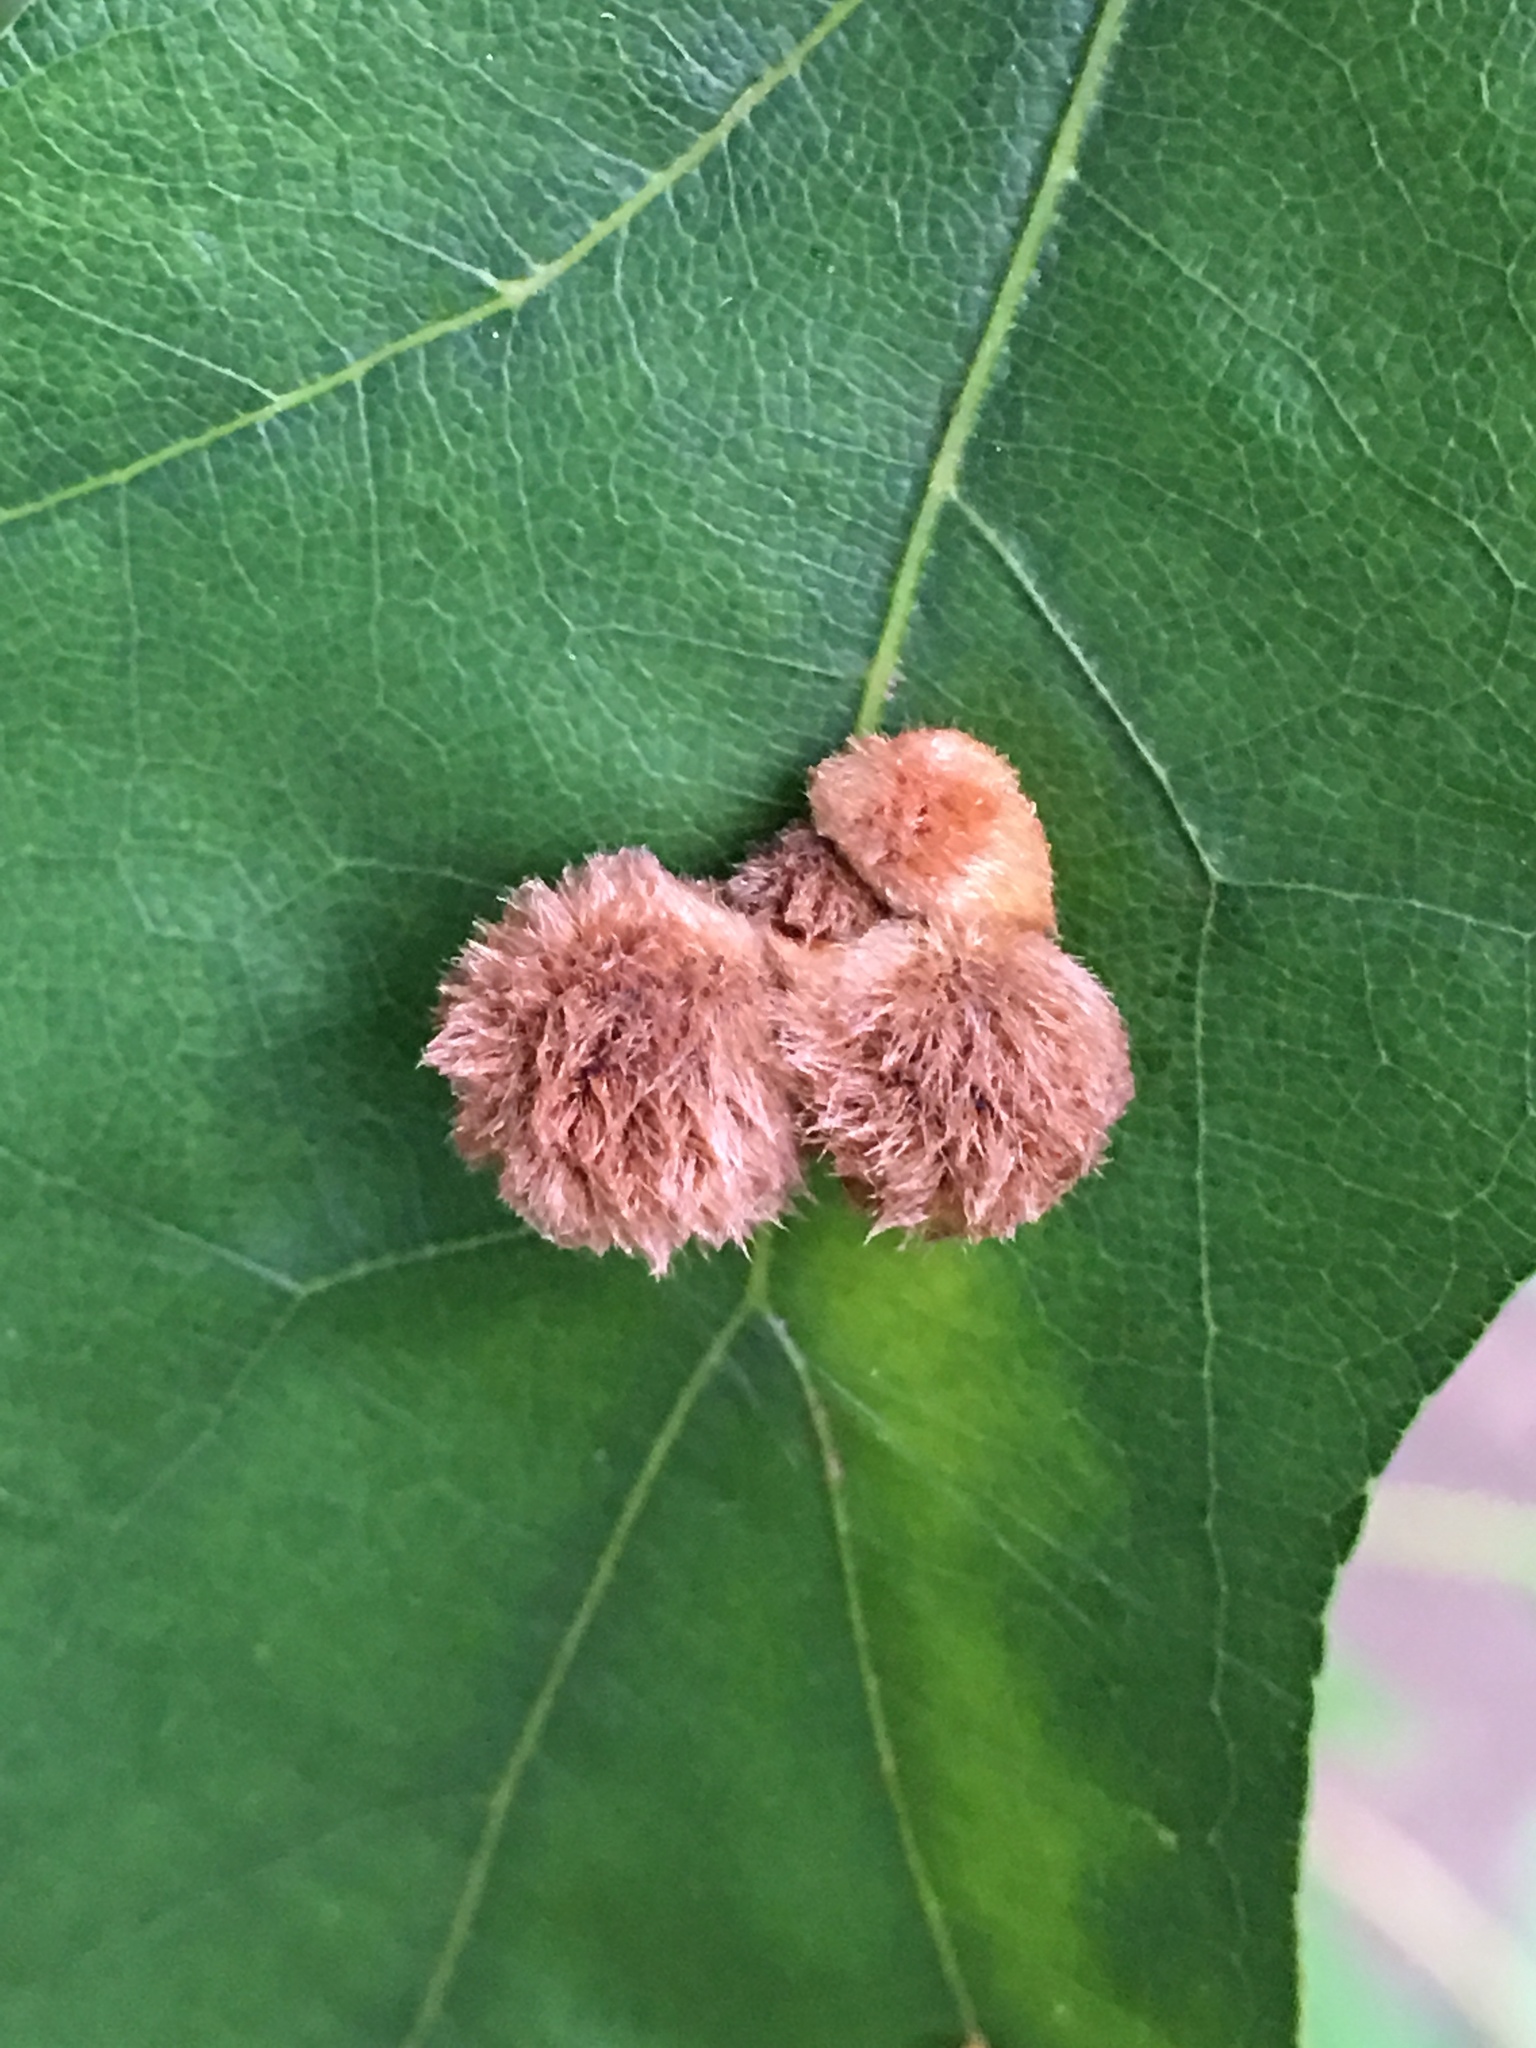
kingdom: Animalia
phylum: Arthropoda
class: Insecta
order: Hymenoptera
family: Cynipidae
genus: Callirhytis
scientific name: Callirhytis
